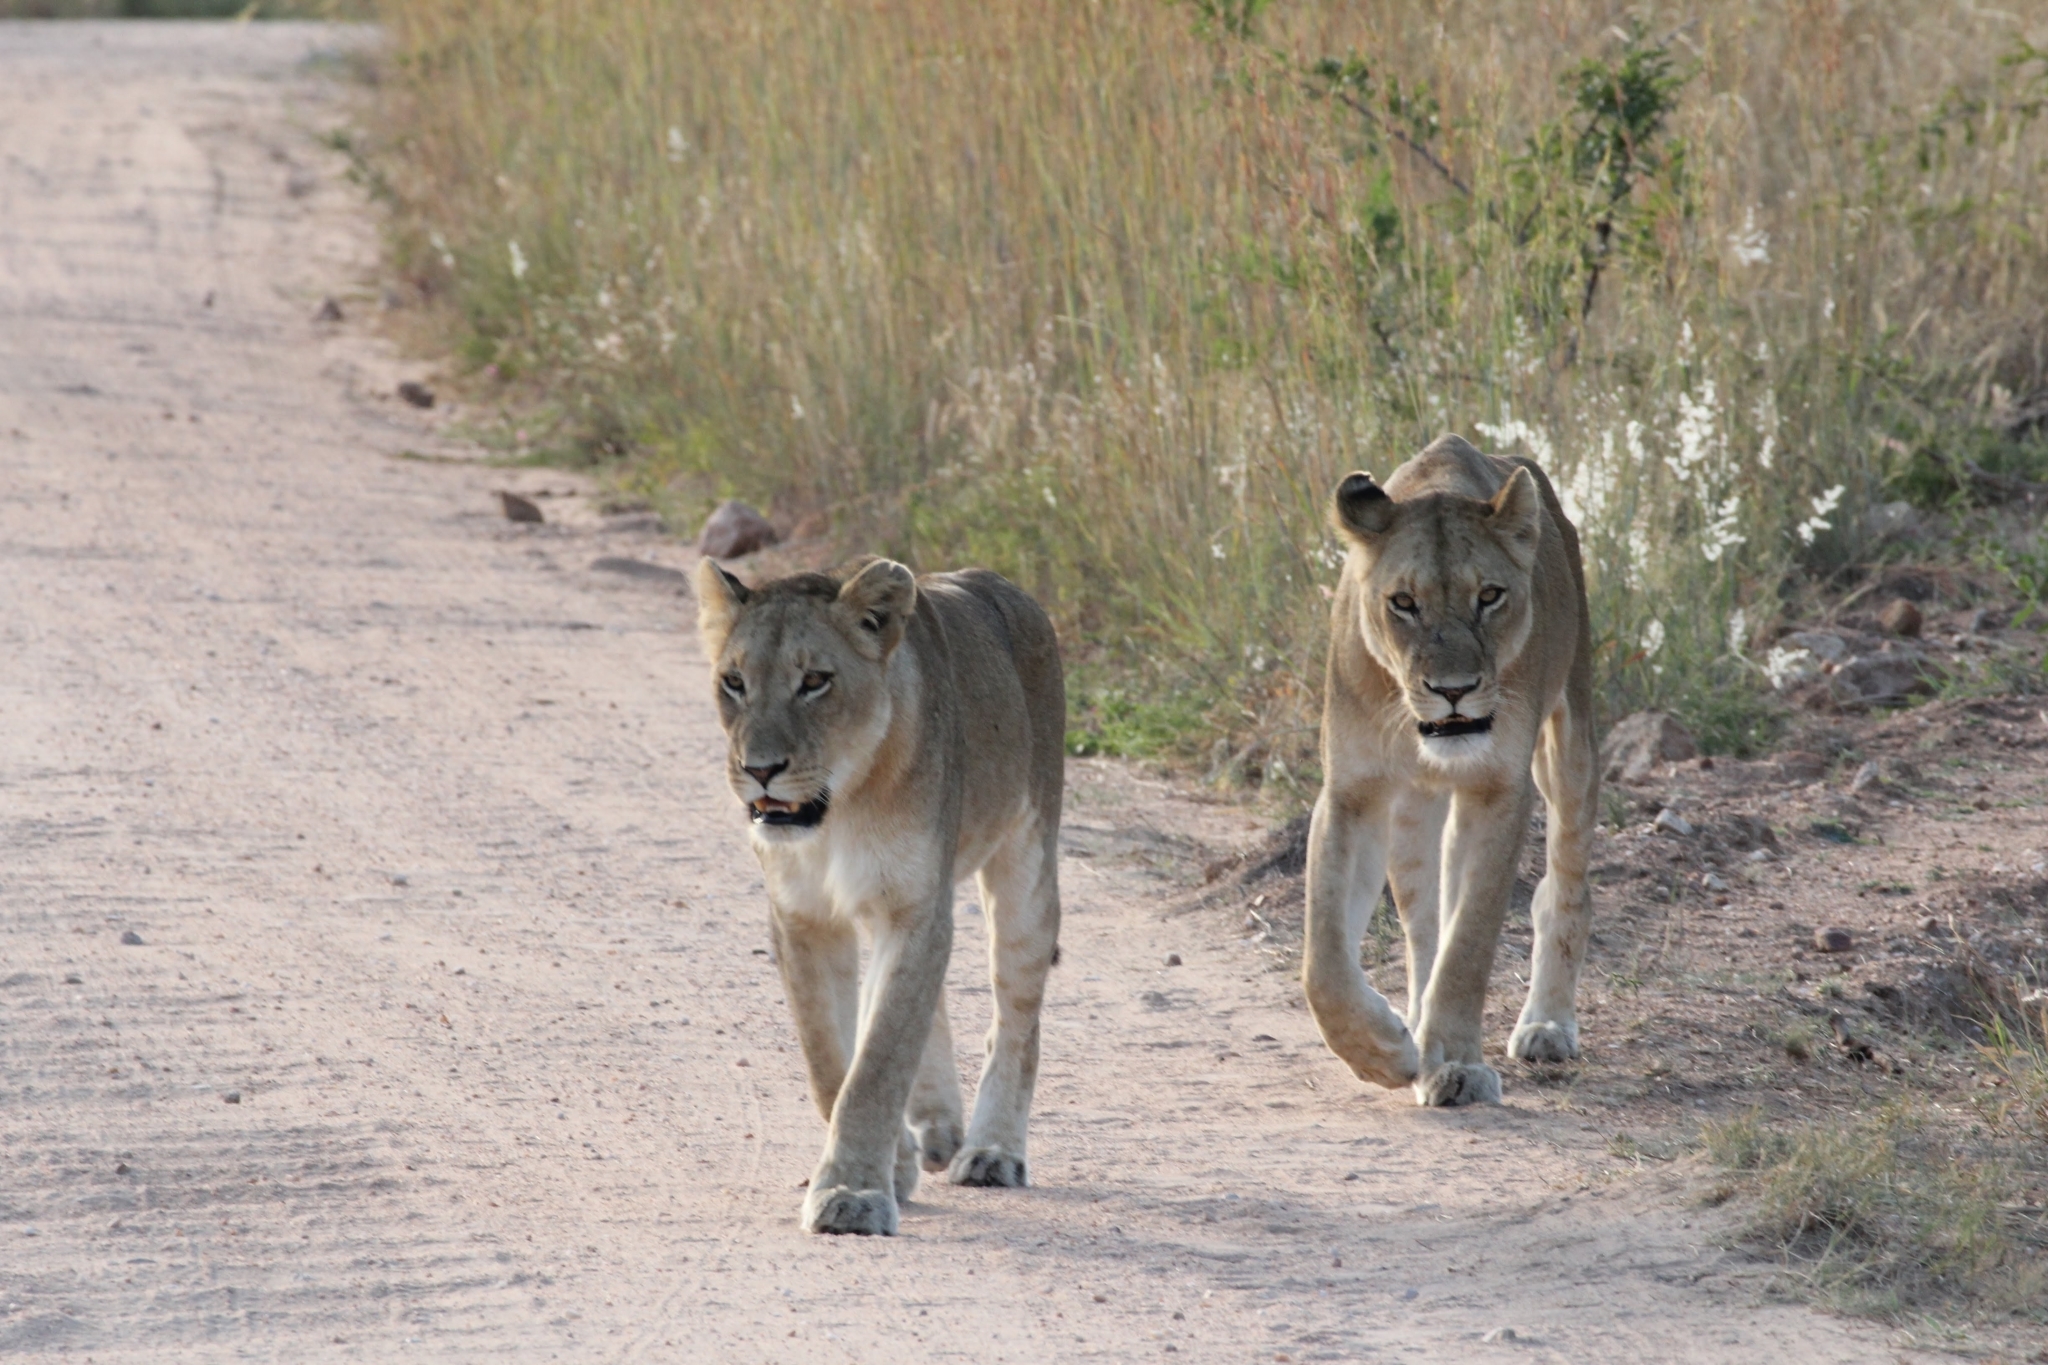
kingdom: Animalia
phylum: Chordata
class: Mammalia
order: Carnivora
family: Felidae
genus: Panthera
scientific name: Panthera leo
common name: Lion
